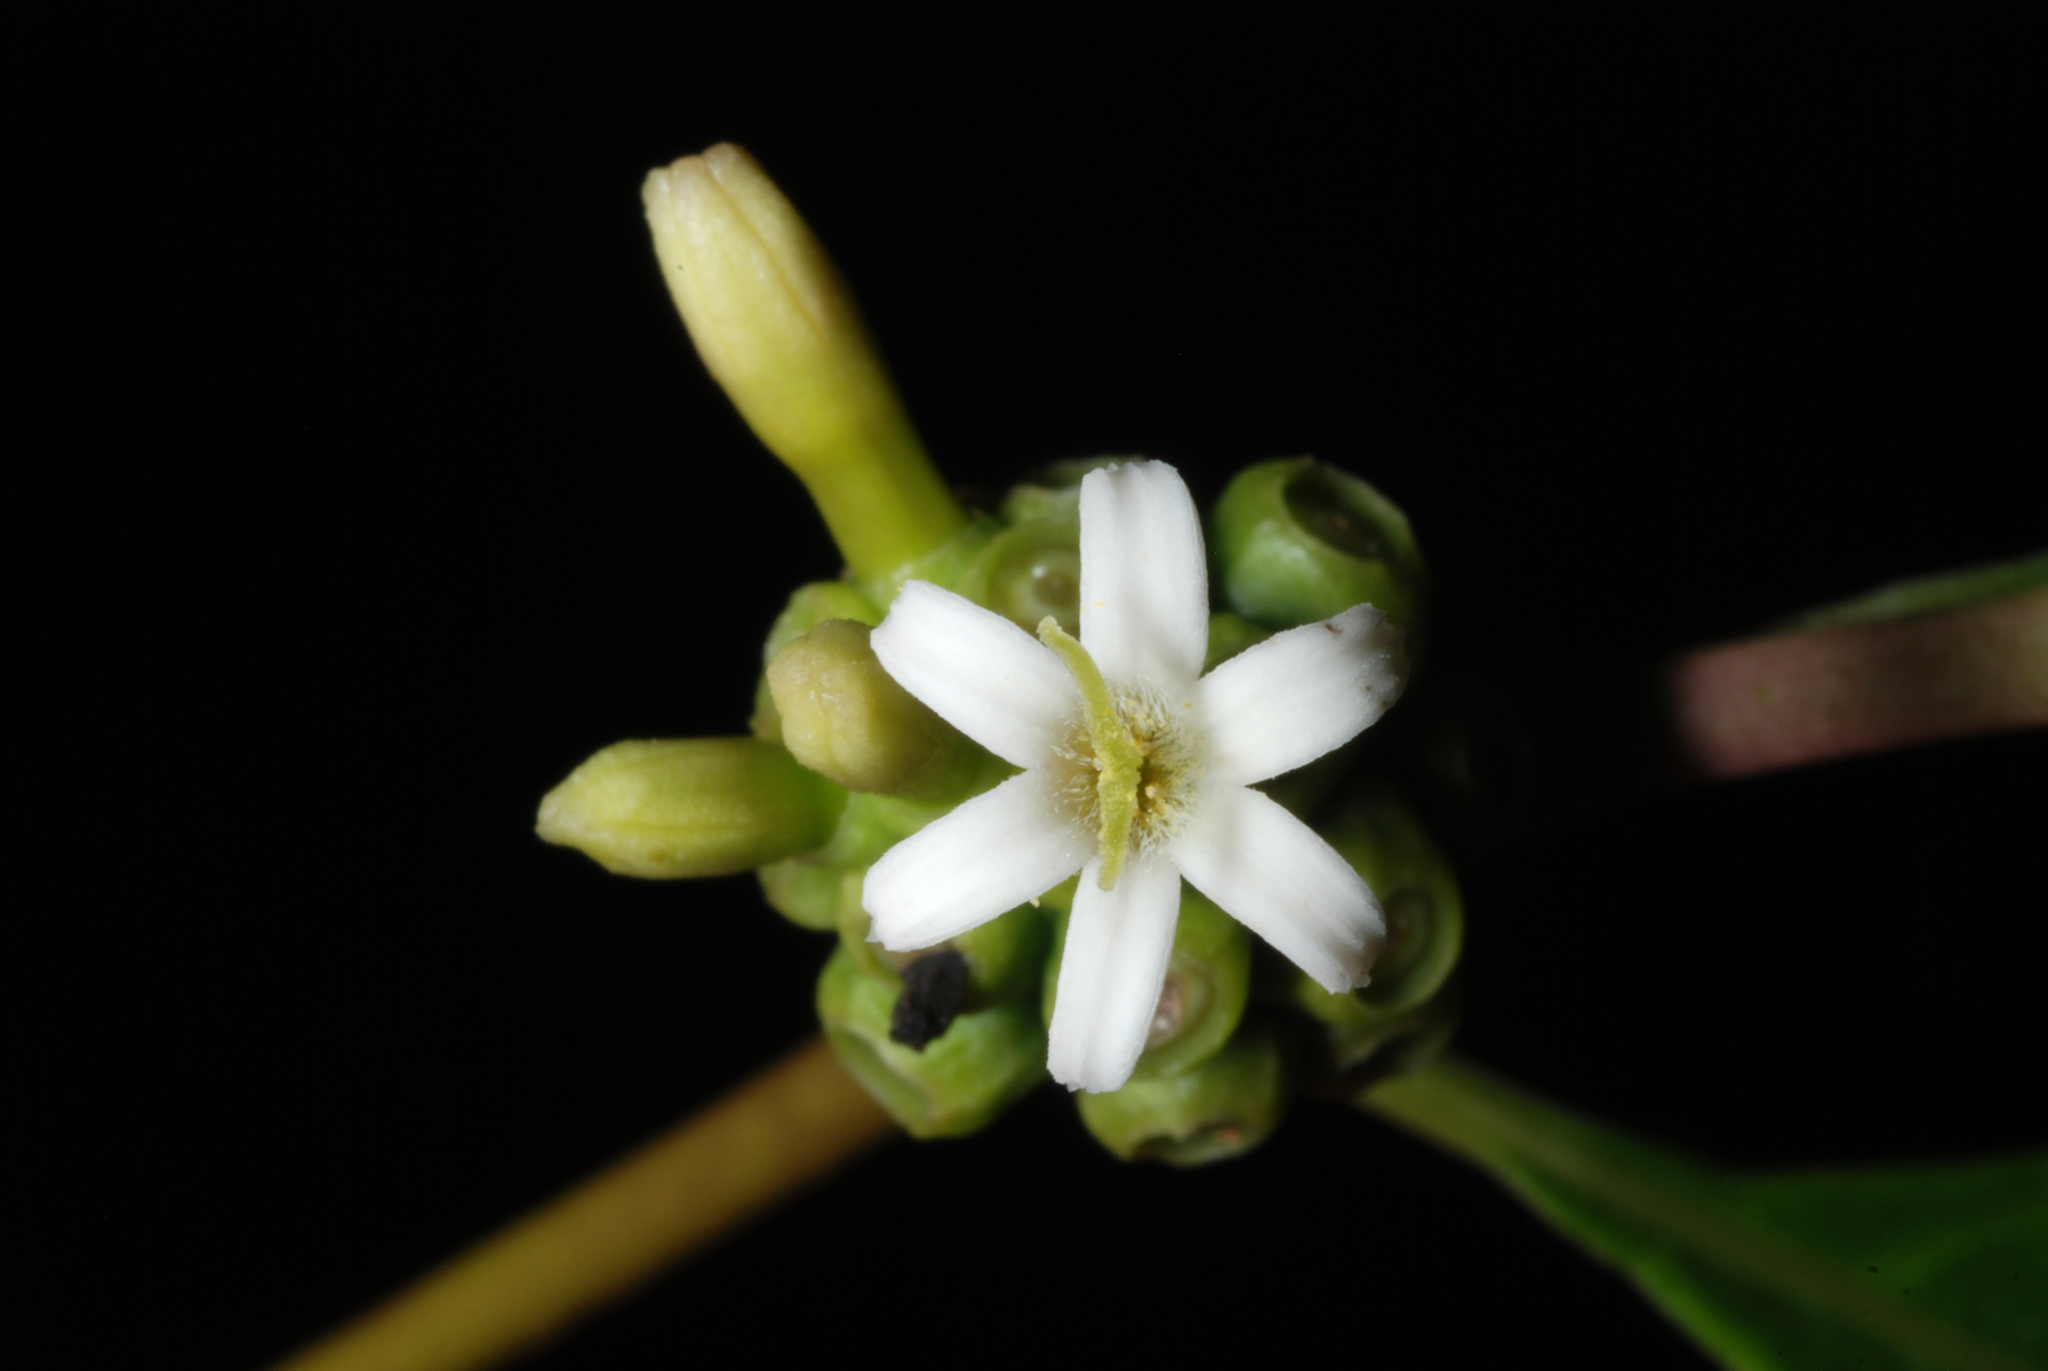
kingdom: Plantae
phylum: Tracheophyta
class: Magnoliopsida
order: Gentianales
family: Rubiaceae
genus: Morinda
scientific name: Morinda royoc
